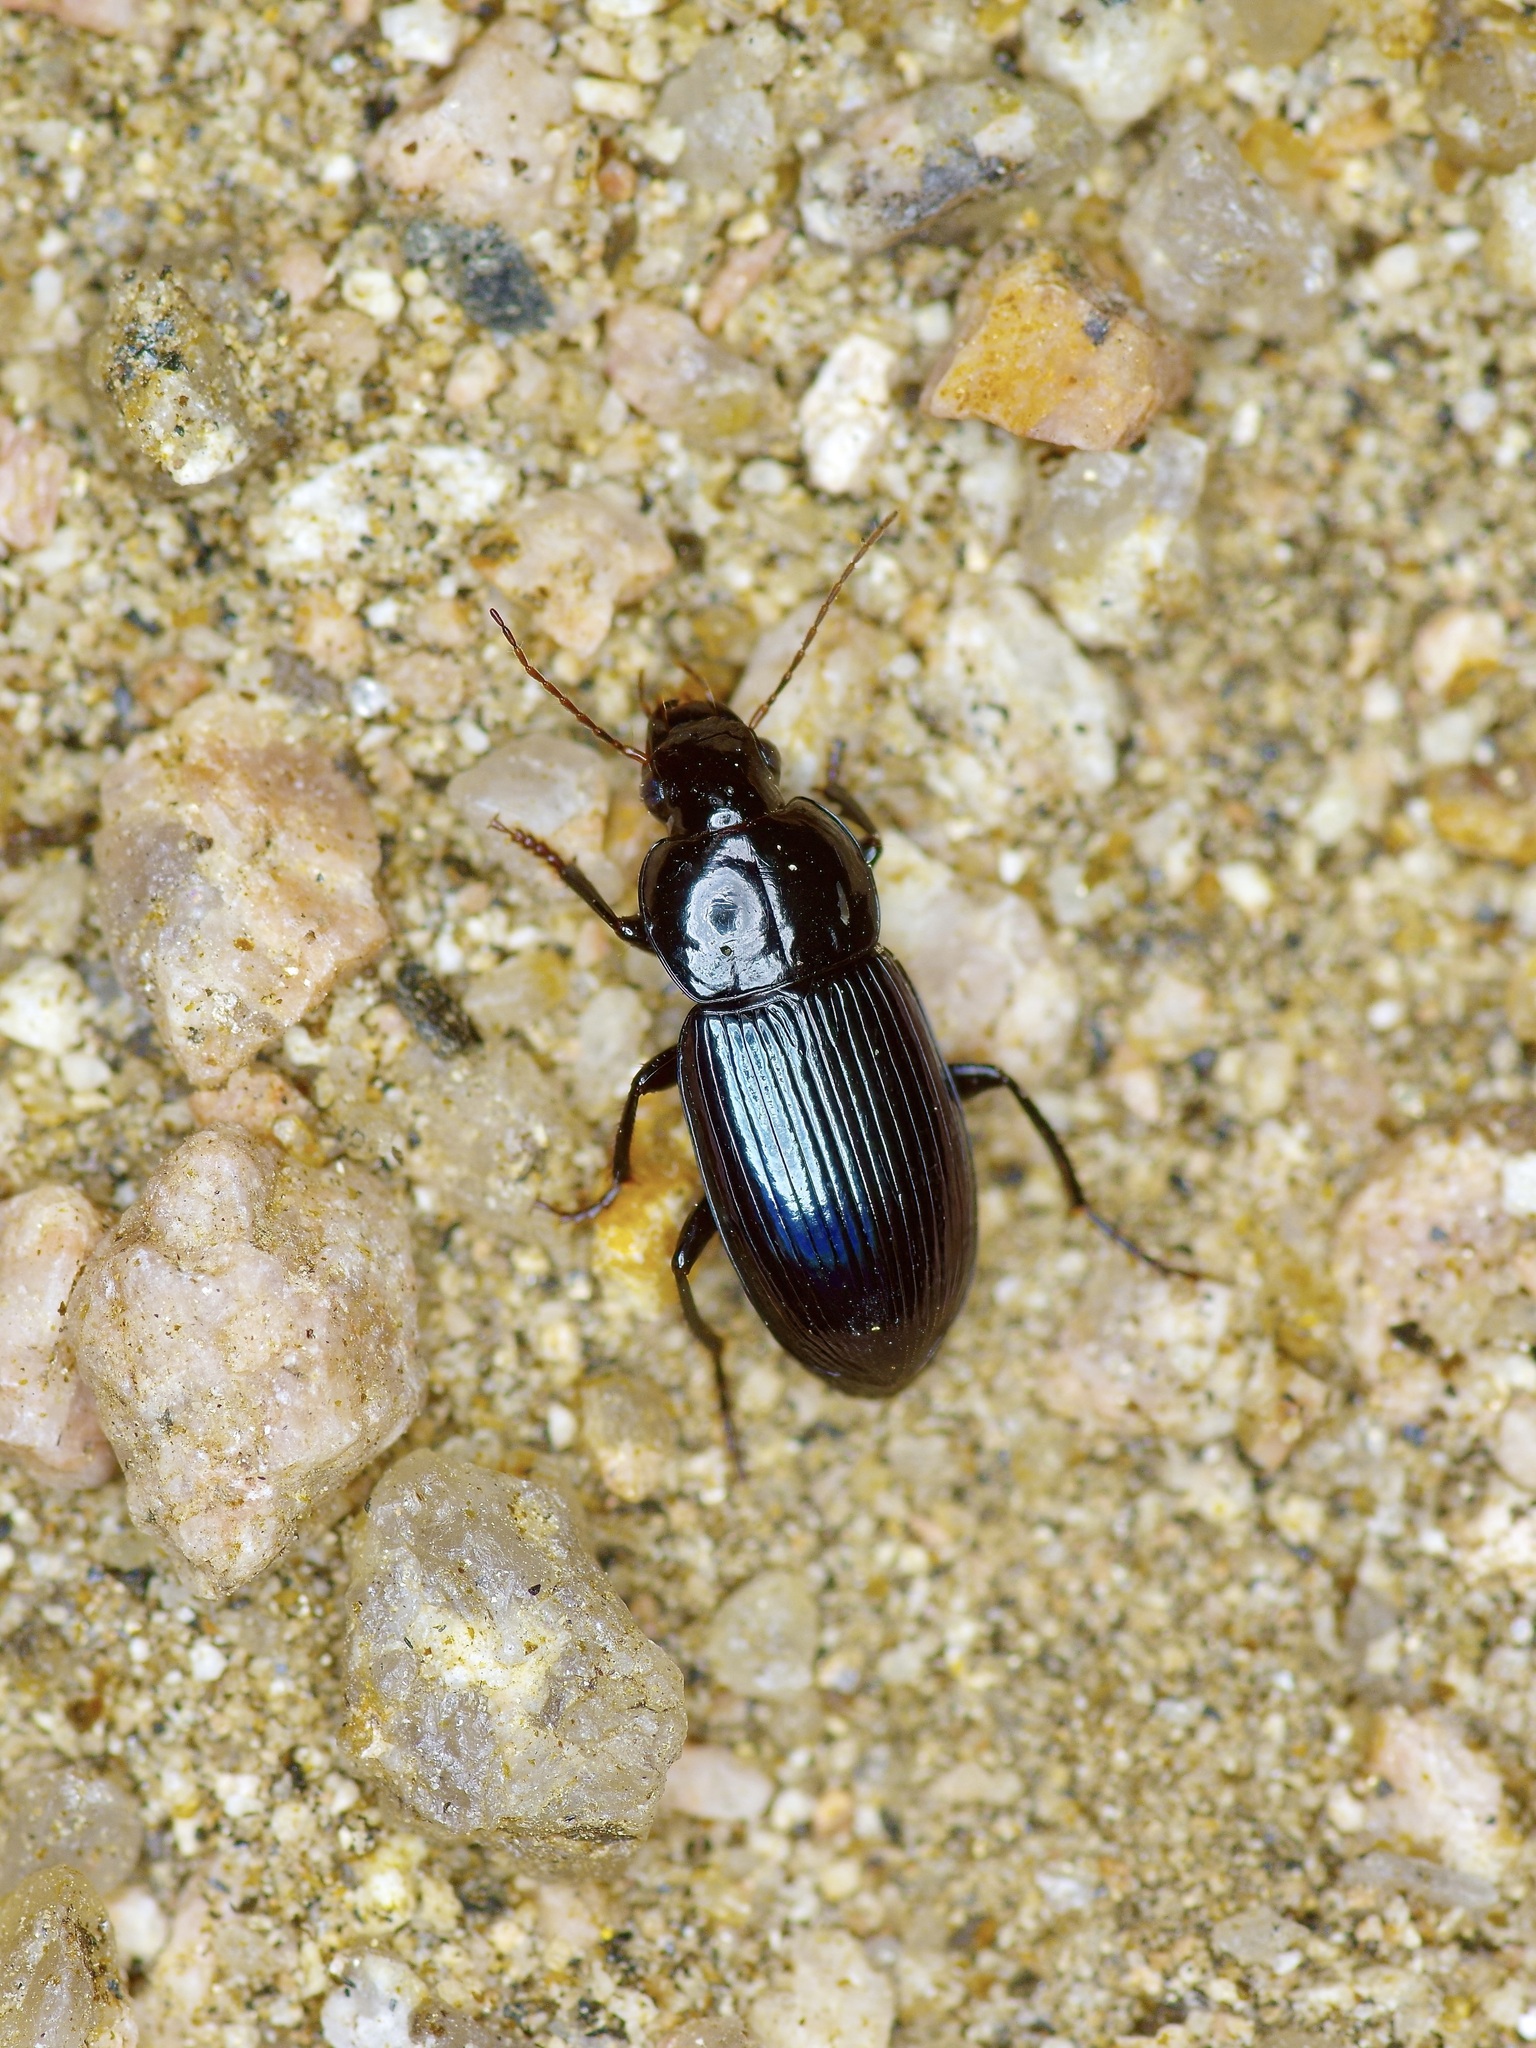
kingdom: Animalia
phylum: Arthropoda
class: Insecta
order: Coleoptera
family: Carabidae
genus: Aztecarpalus
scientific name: Aztecarpalus schaefferi
